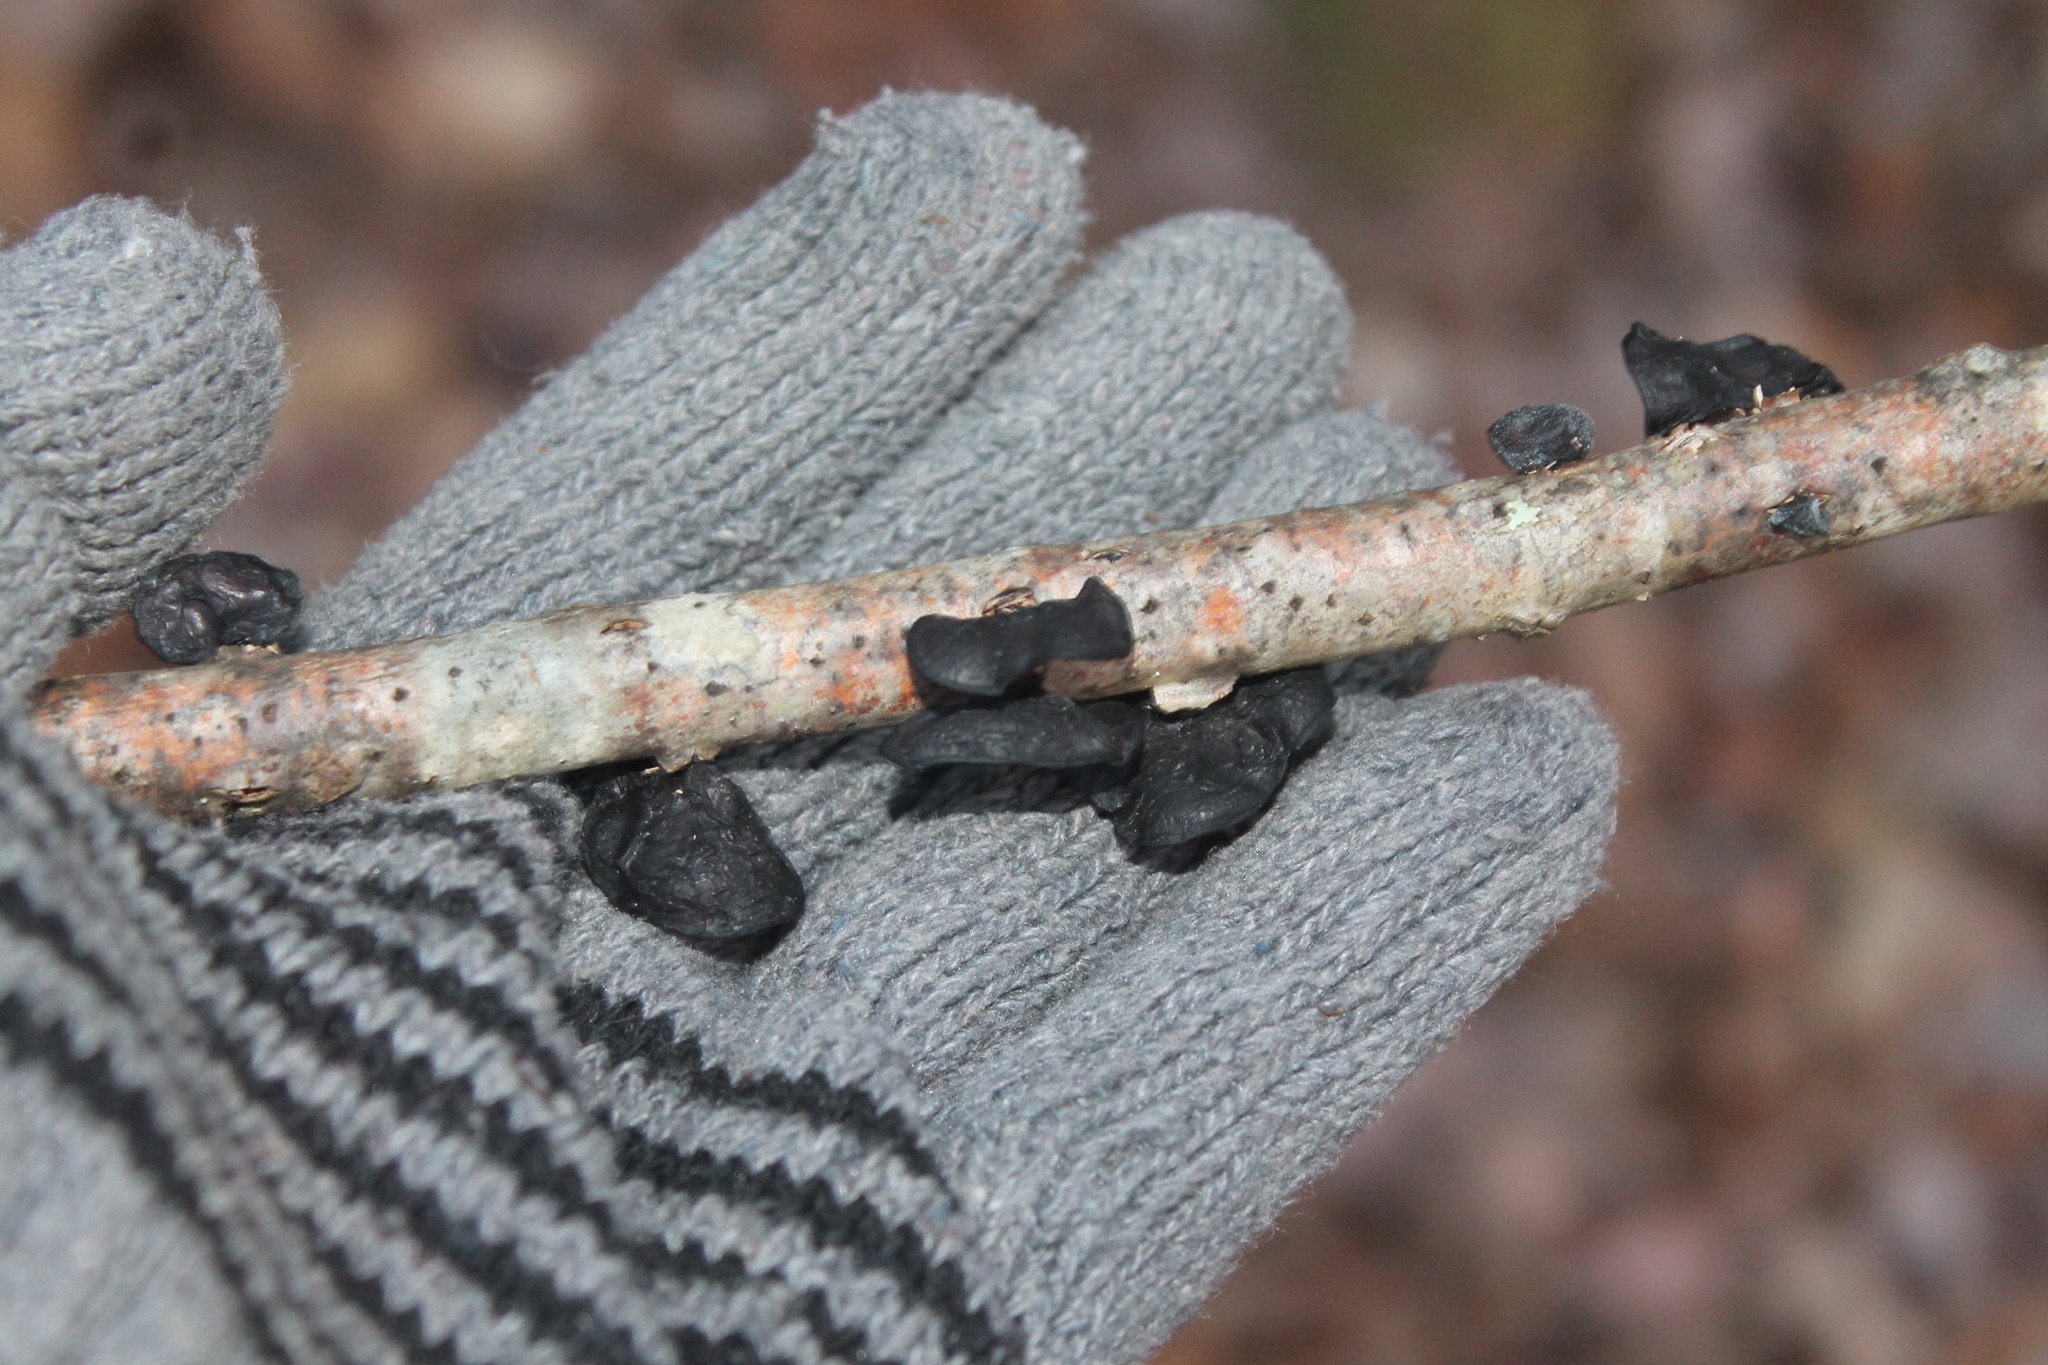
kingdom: Fungi
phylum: Basidiomycota
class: Agaricomycetes
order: Auriculariales
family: Auriculariaceae
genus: Exidia
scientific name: Exidia
